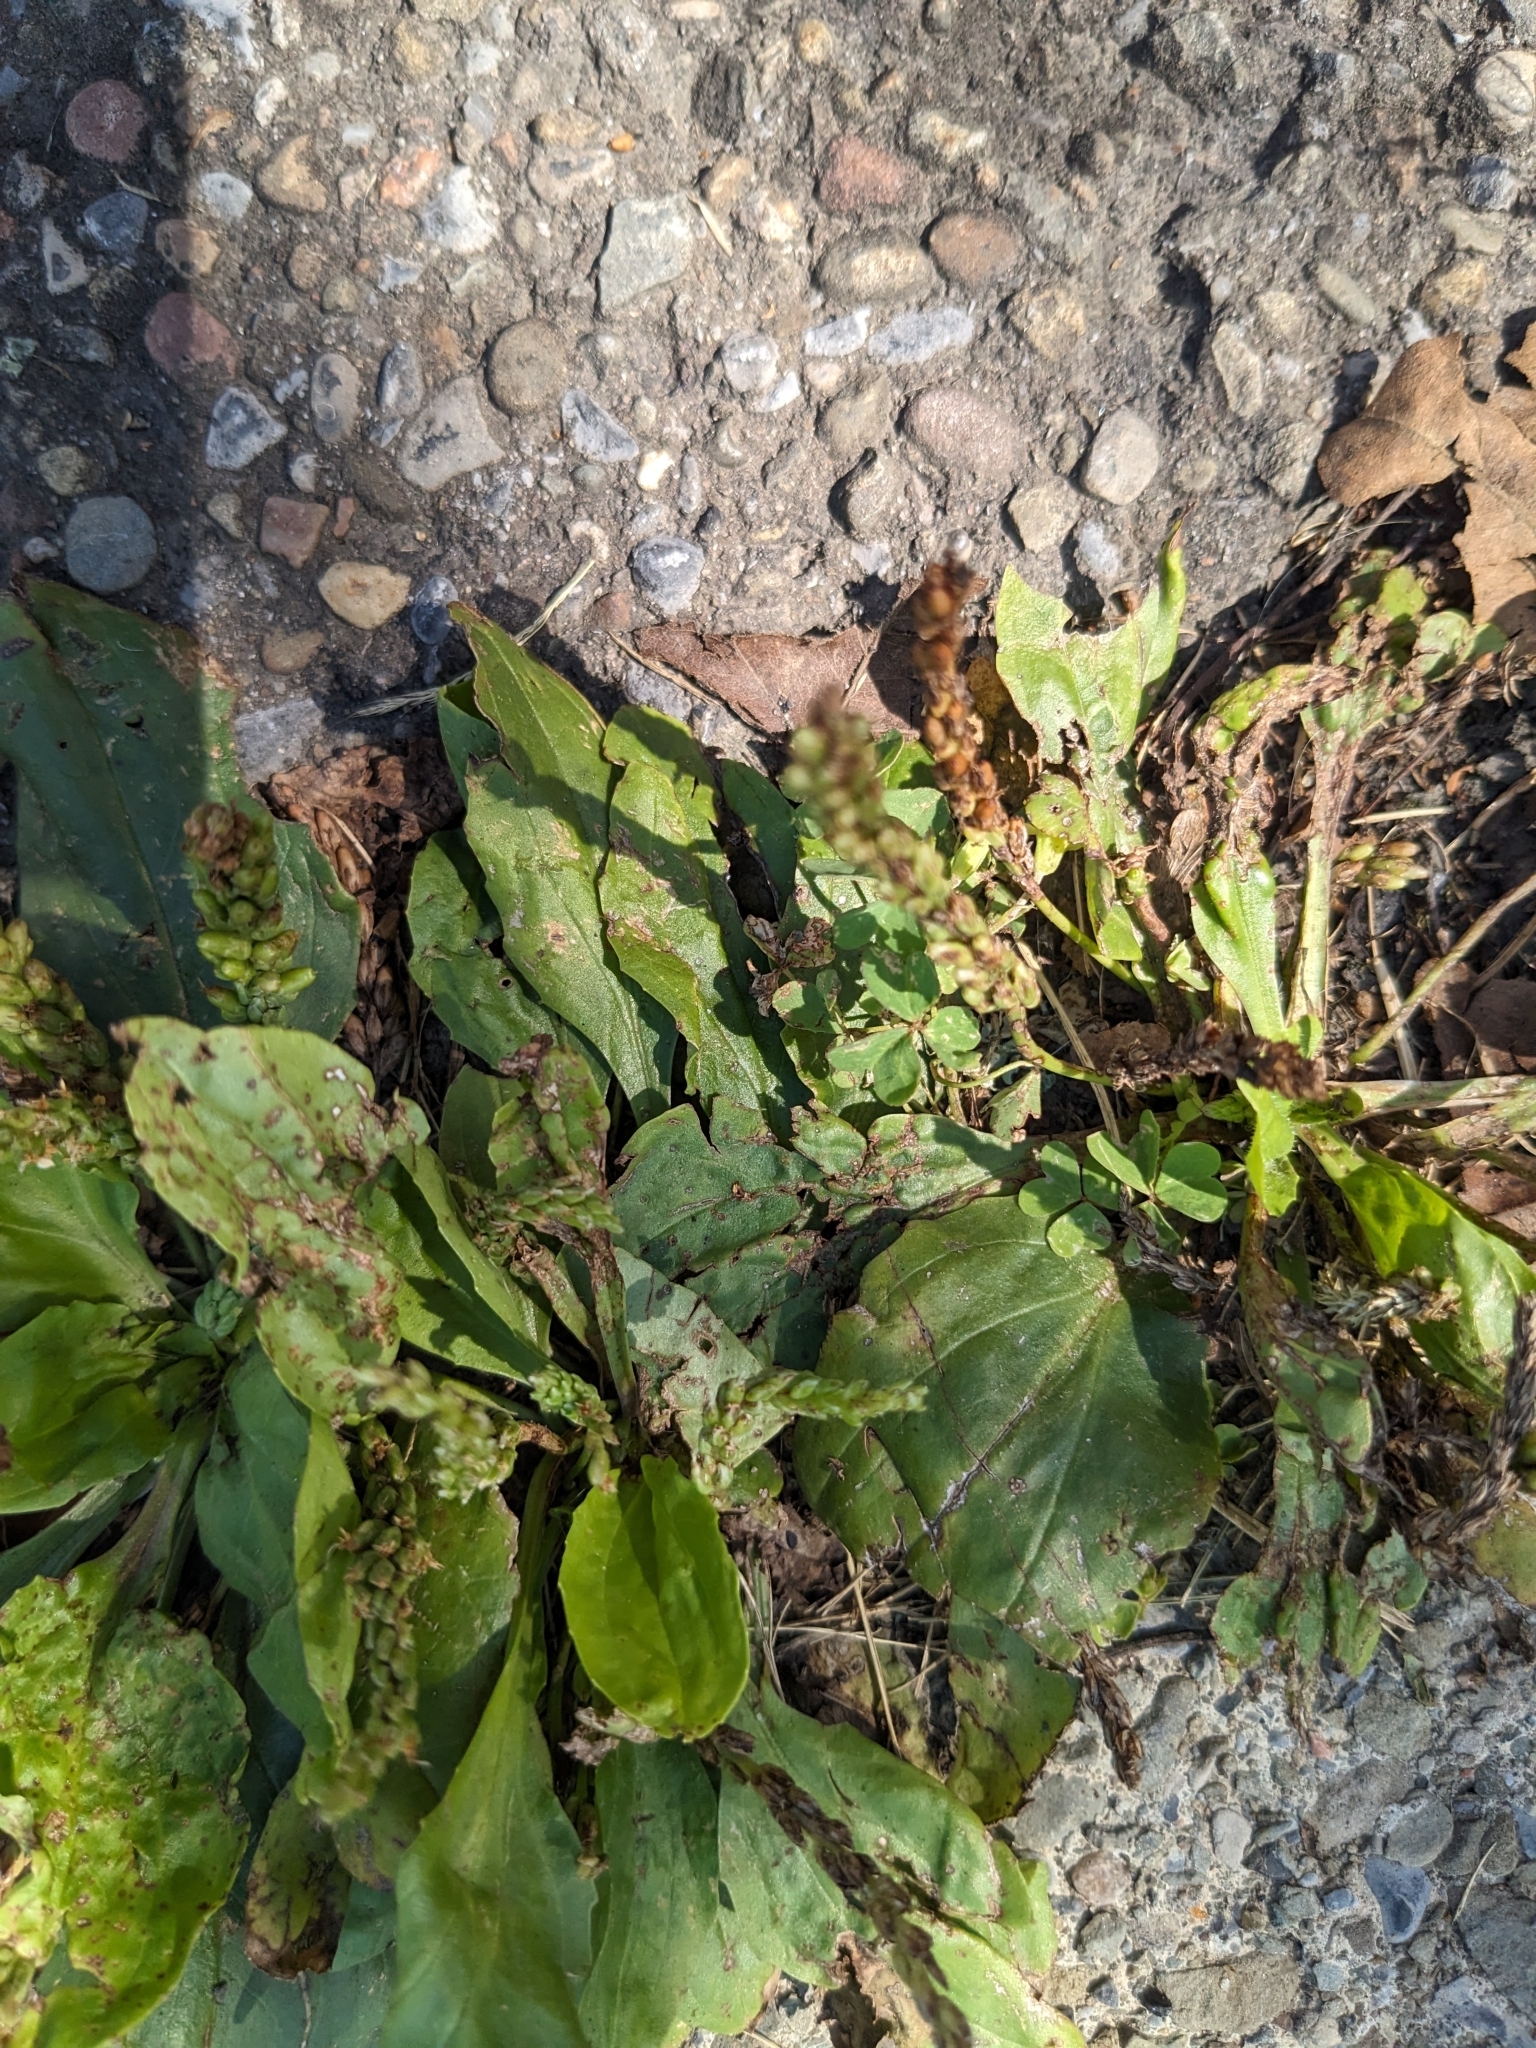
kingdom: Plantae
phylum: Tracheophyta
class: Magnoliopsida
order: Lamiales
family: Plantaginaceae
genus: Plantago
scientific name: Plantago major
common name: Common plantain
